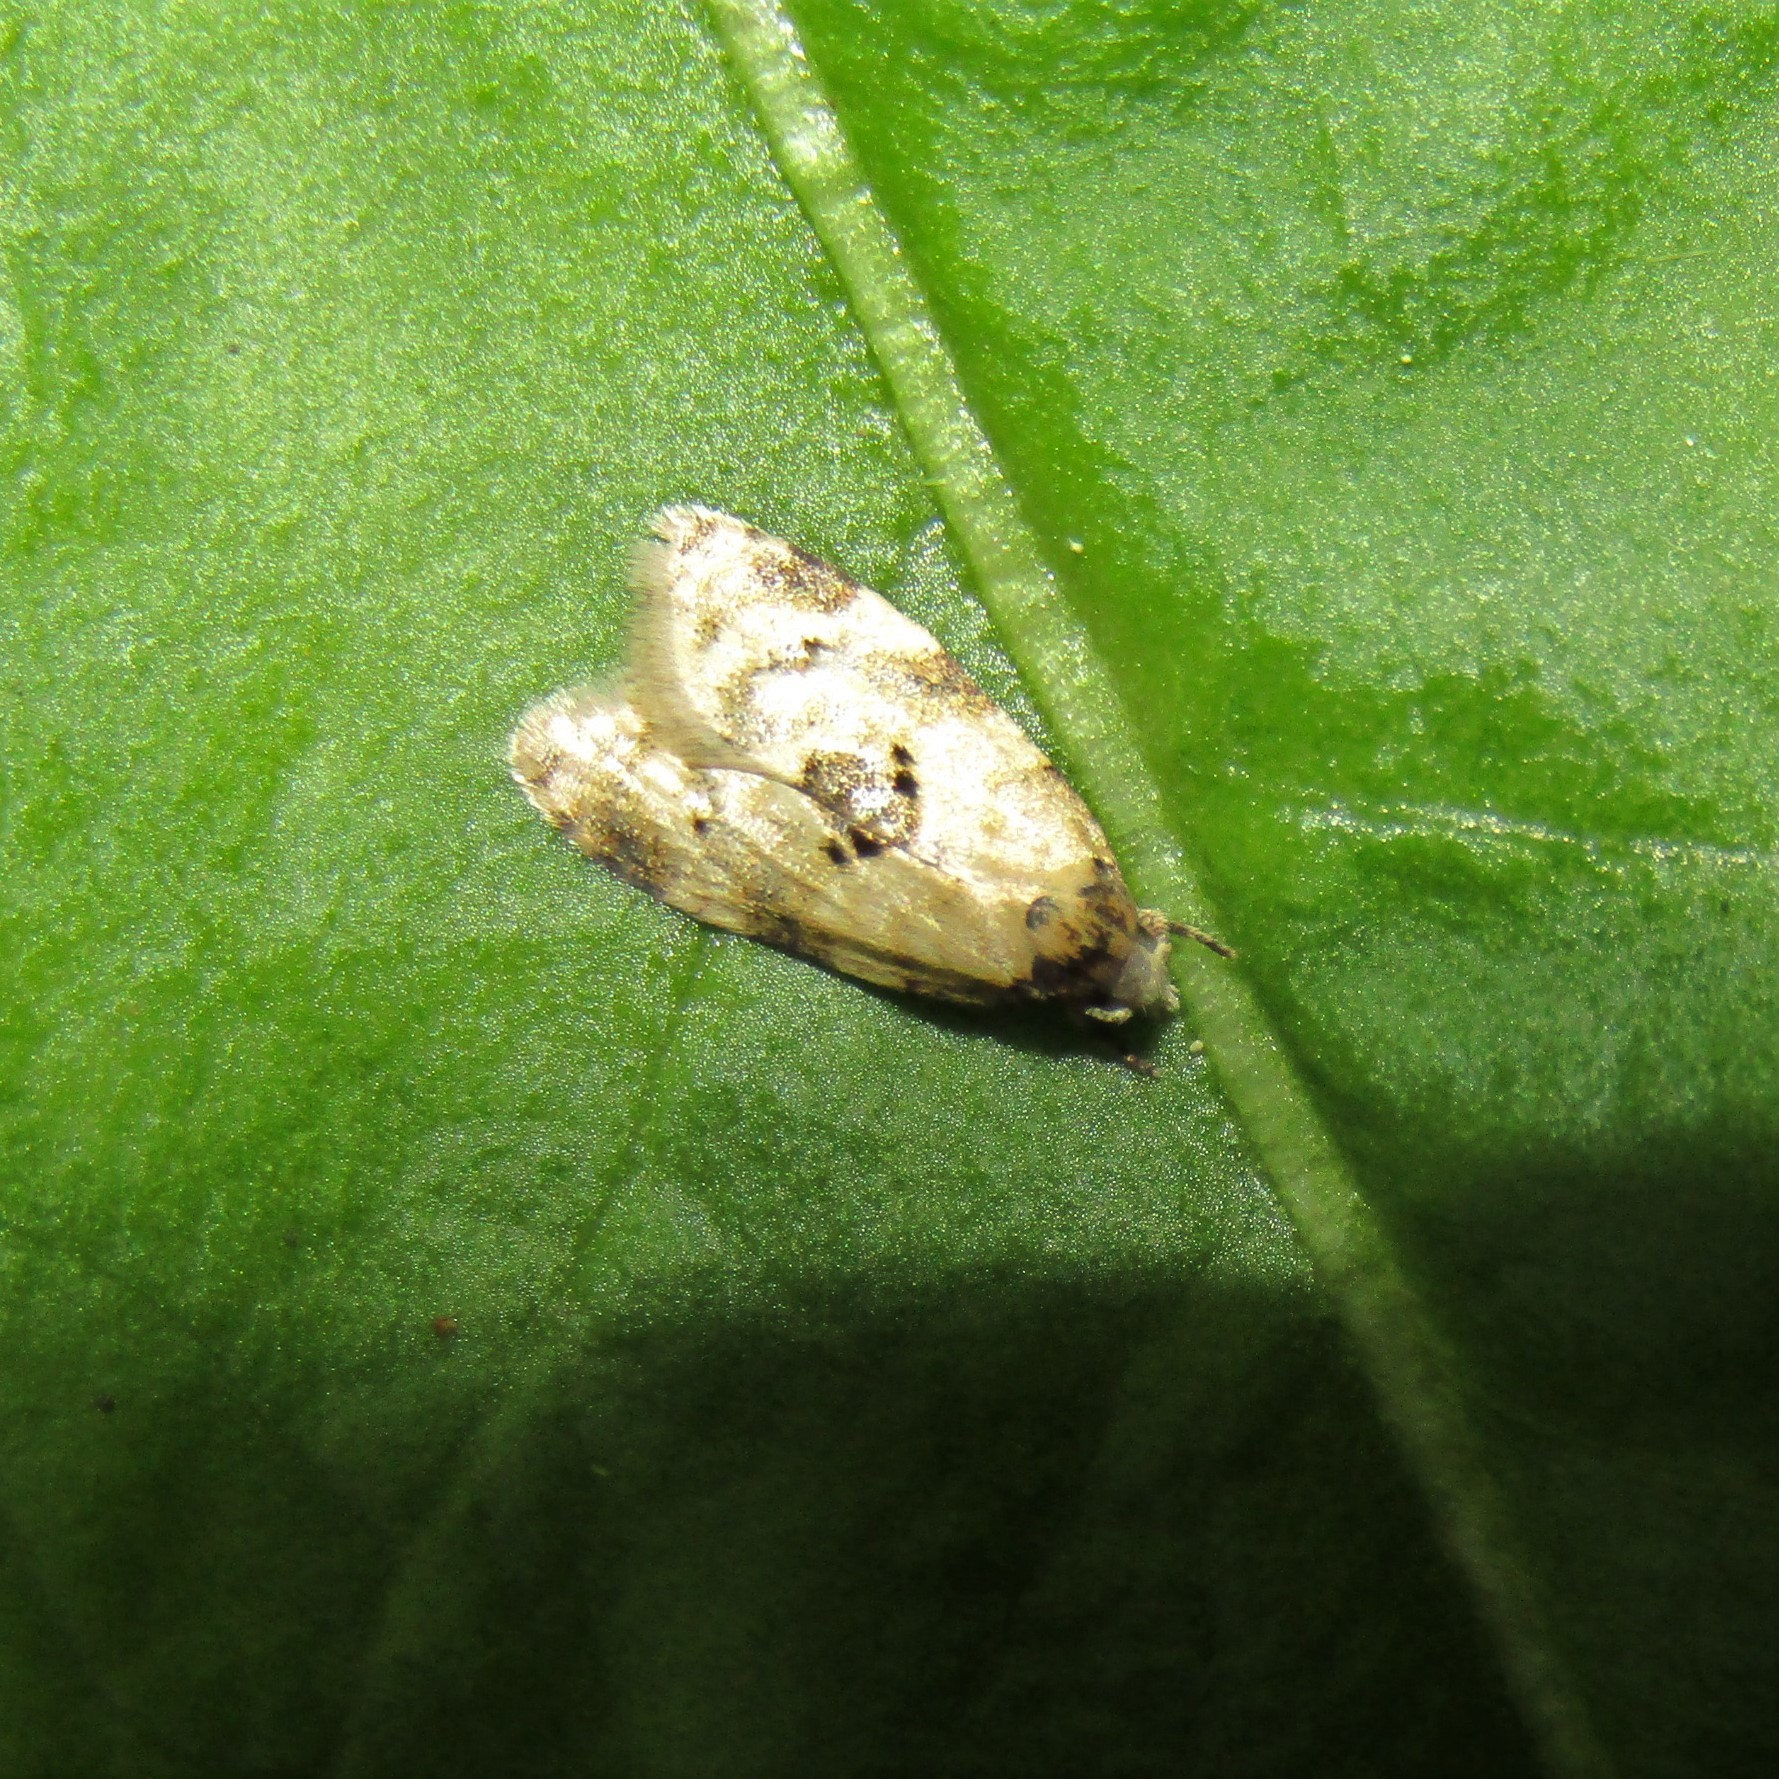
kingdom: Animalia
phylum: Arthropoda
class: Insecta
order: Lepidoptera
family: Tortricidae
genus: Dipterina
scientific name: Dipterina imbriferana
